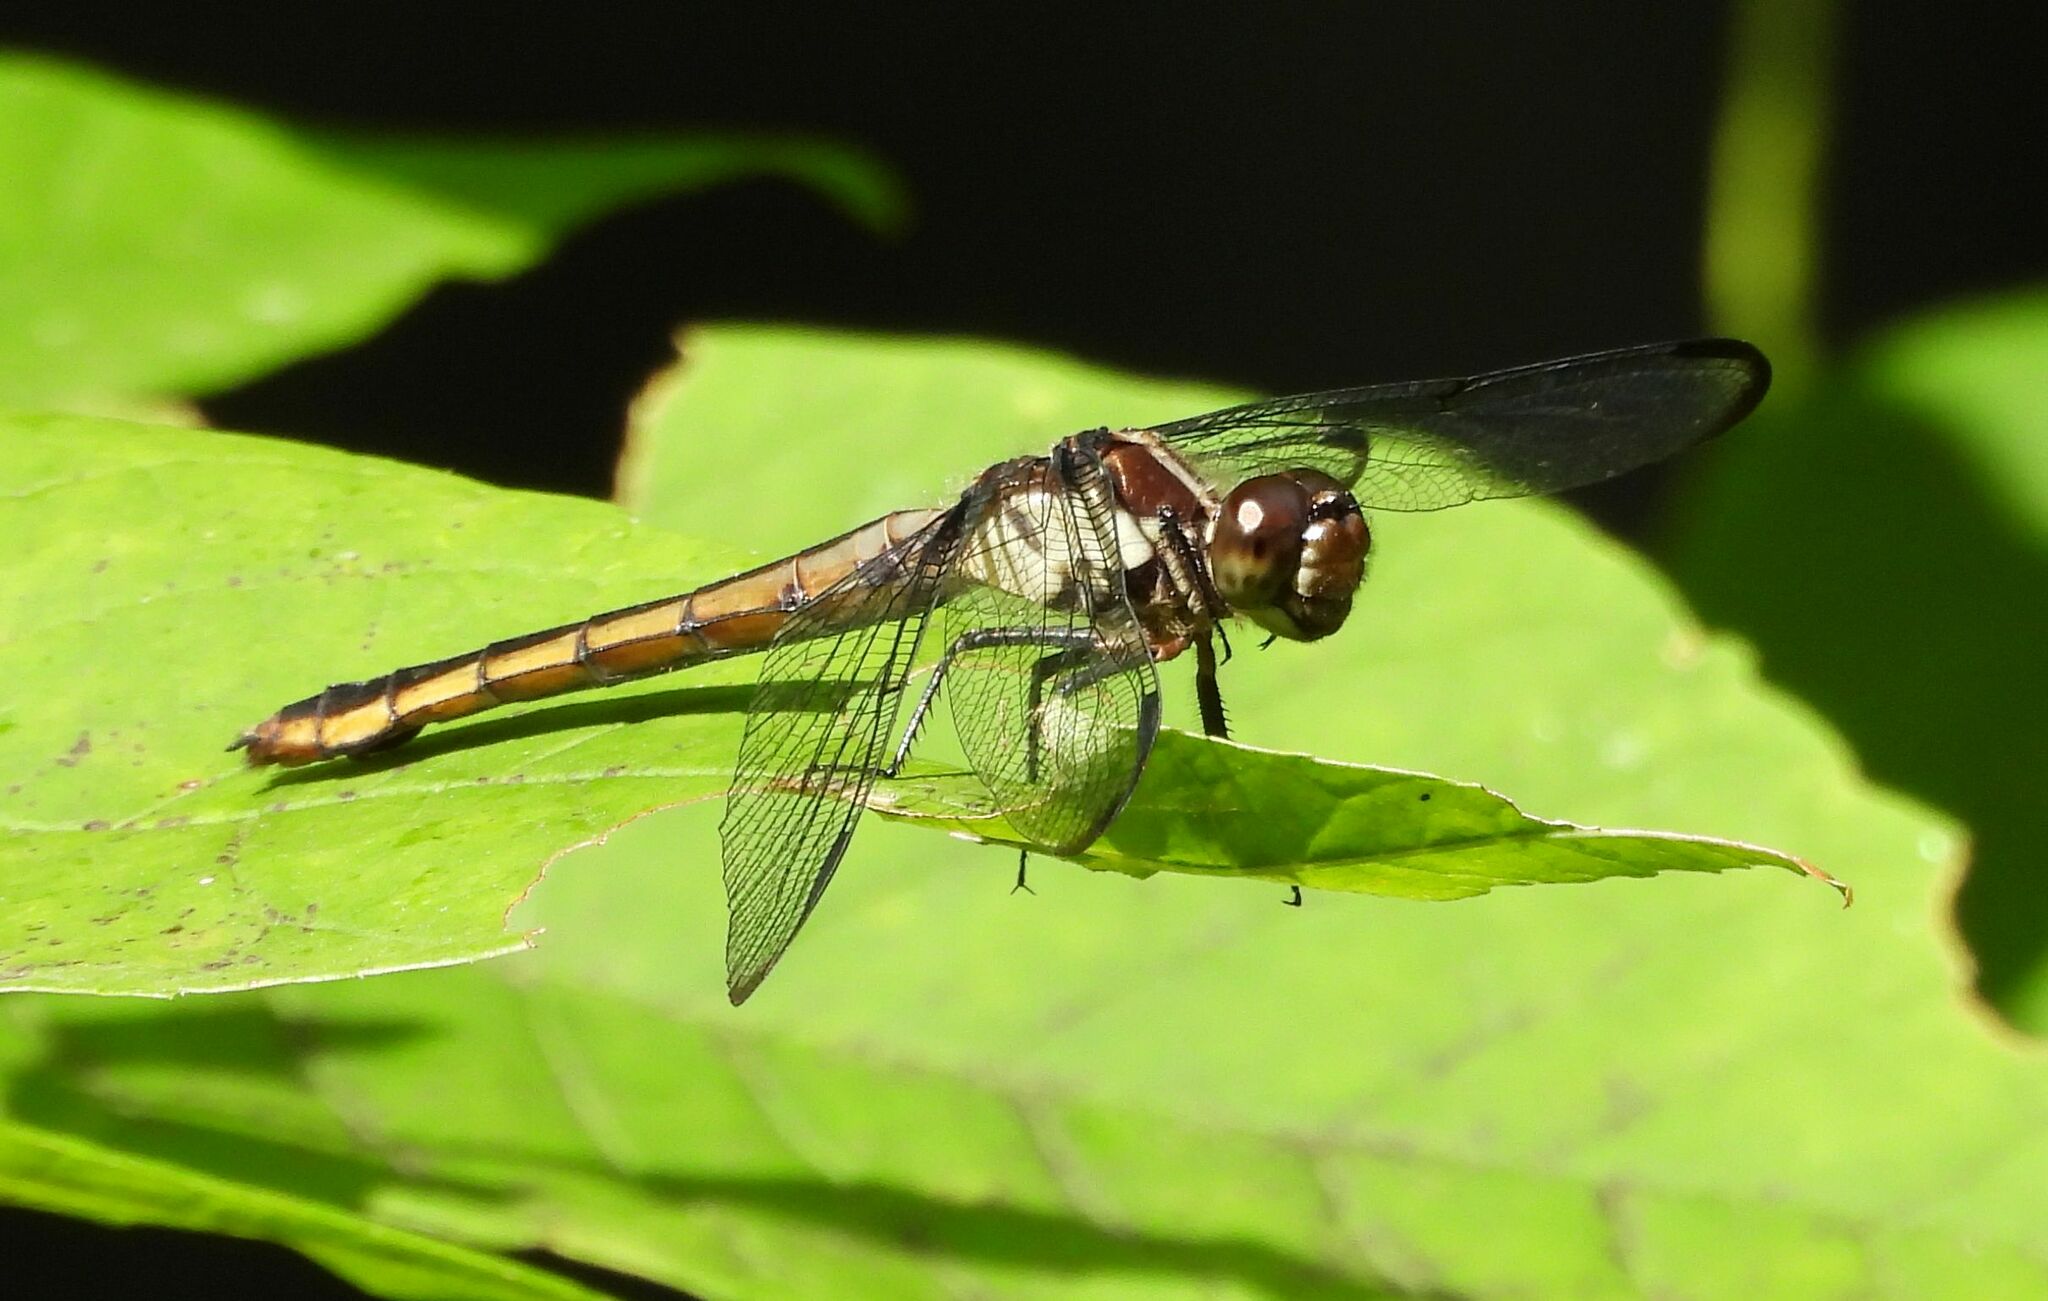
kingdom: Animalia
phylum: Arthropoda
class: Insecta
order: Odonata
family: Libellulidae
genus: Libellula
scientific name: Libellula incesta
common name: Slaty skimmer
